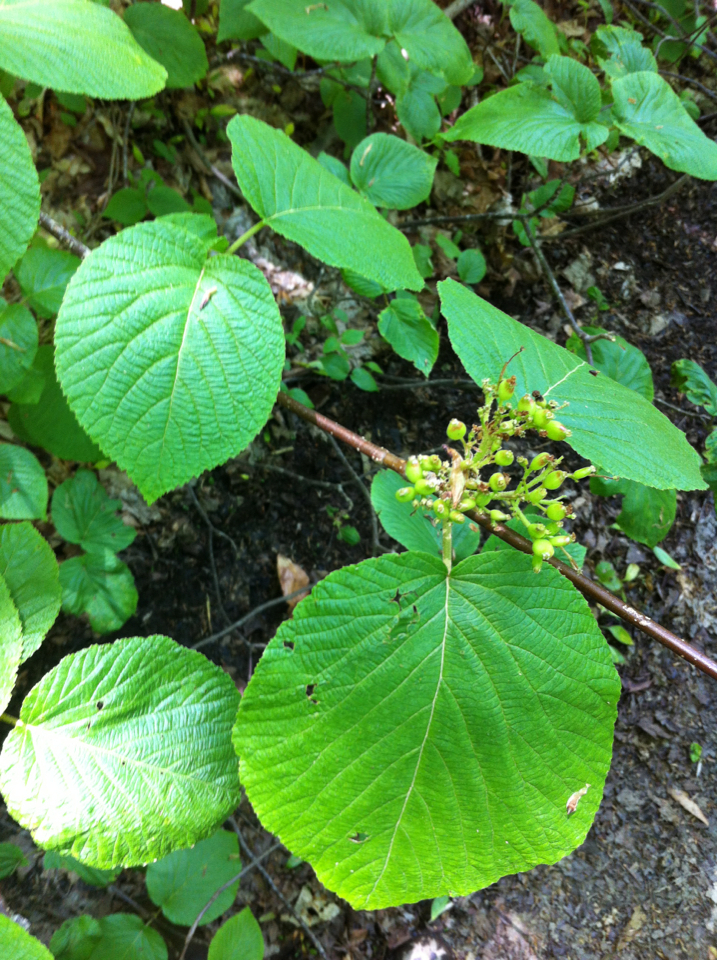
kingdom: Plantae
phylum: Tracheophyta
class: Magnoliopsida
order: Dipsacales
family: Viburnaceae
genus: Viburnum
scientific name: Viburnum lantanoides
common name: Hobblebush
